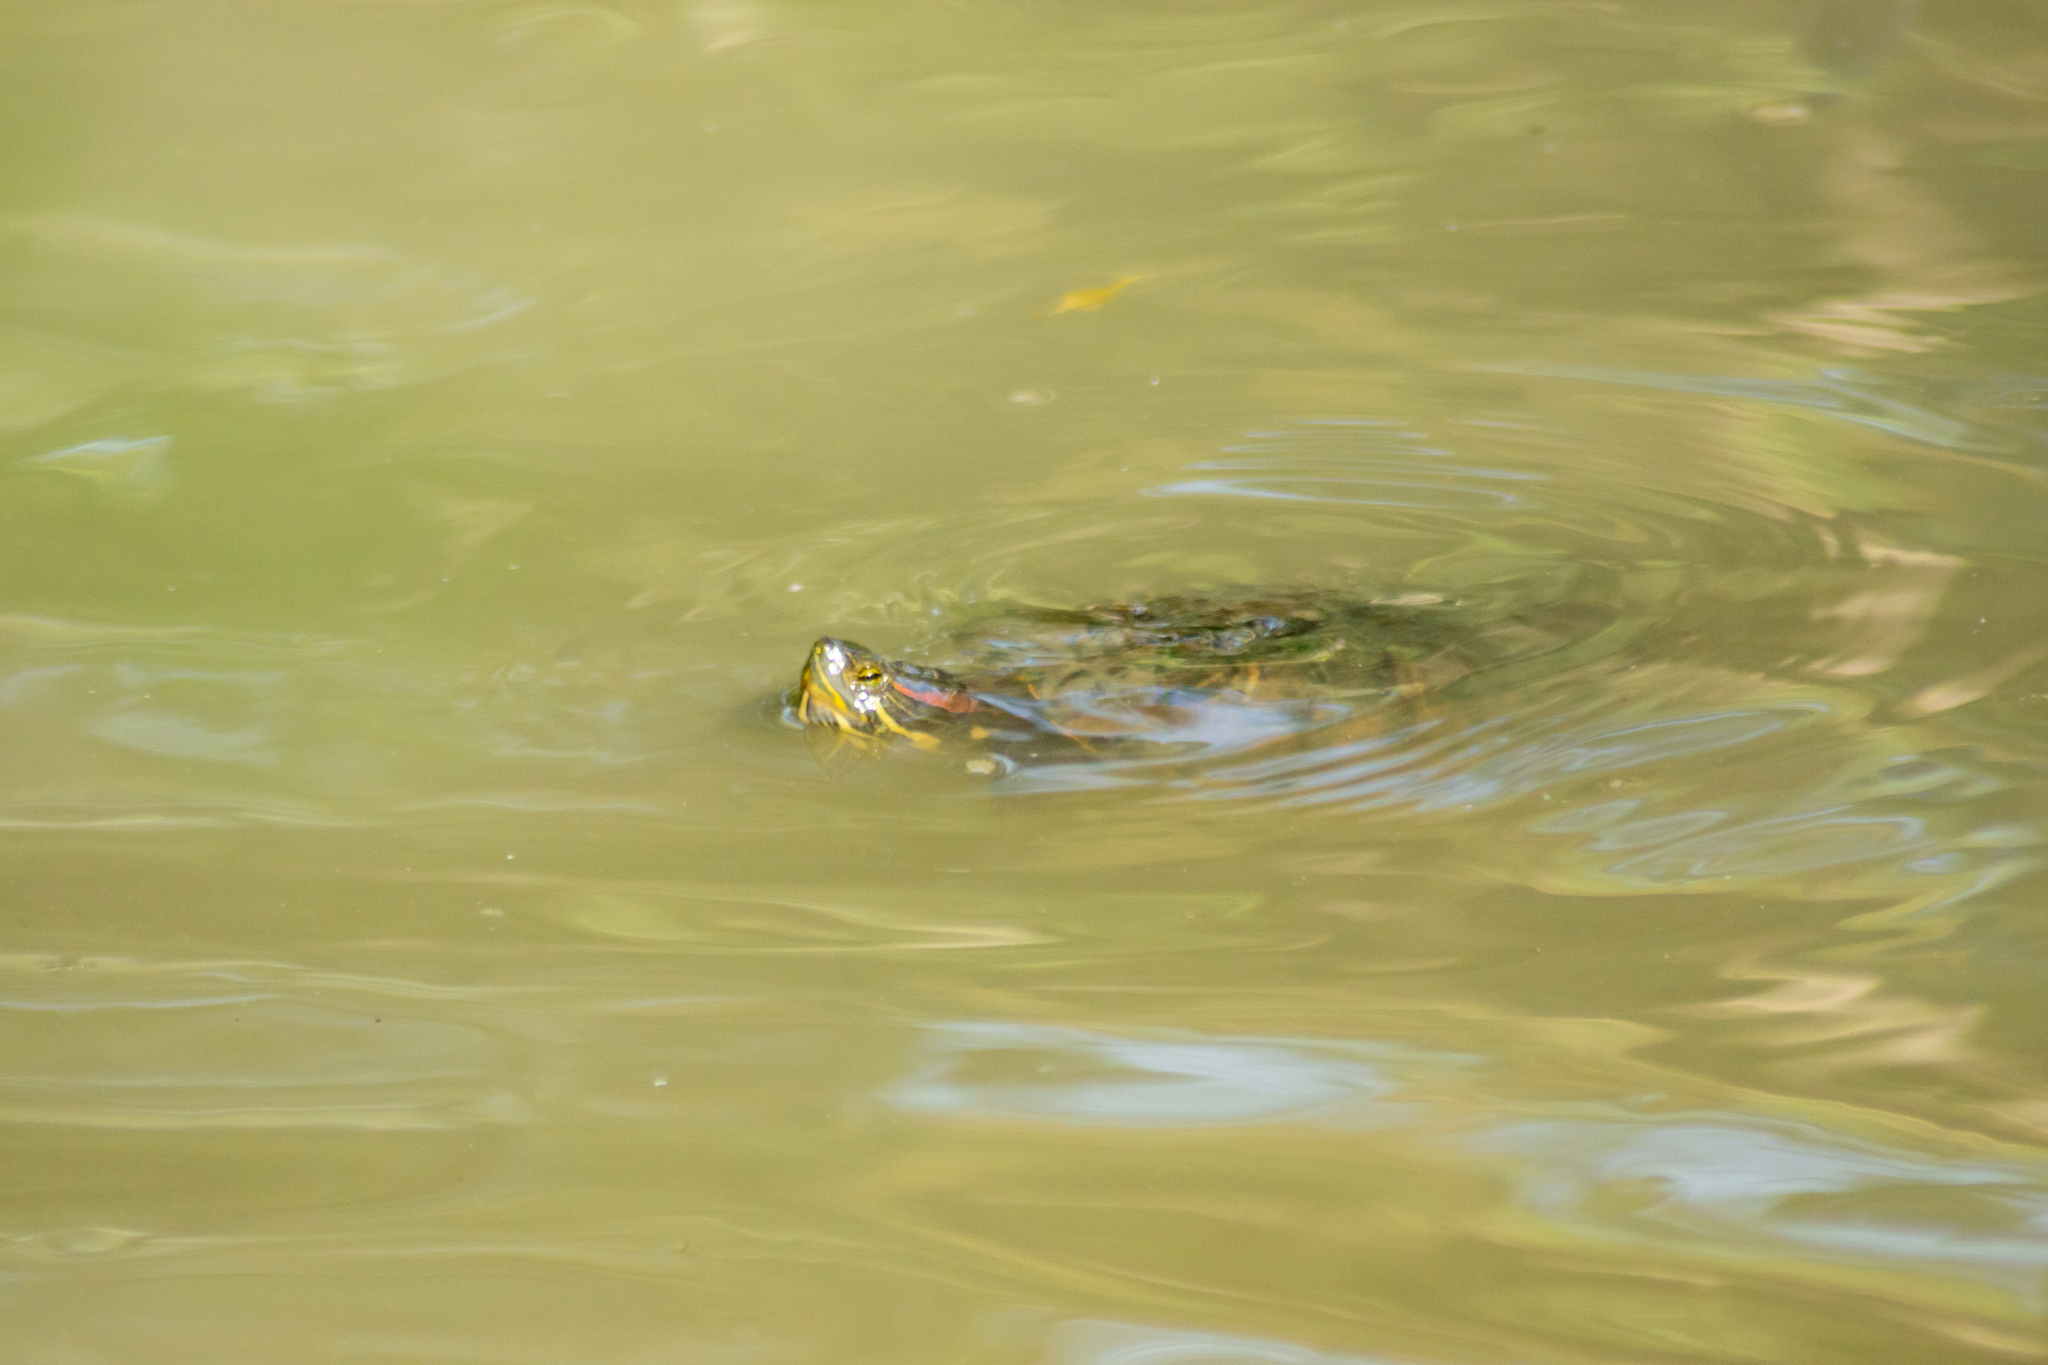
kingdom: Animalia
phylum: Chordata
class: Testudines
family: Emydidae
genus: Trachemys
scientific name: Trachemys scripta
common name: Slider
